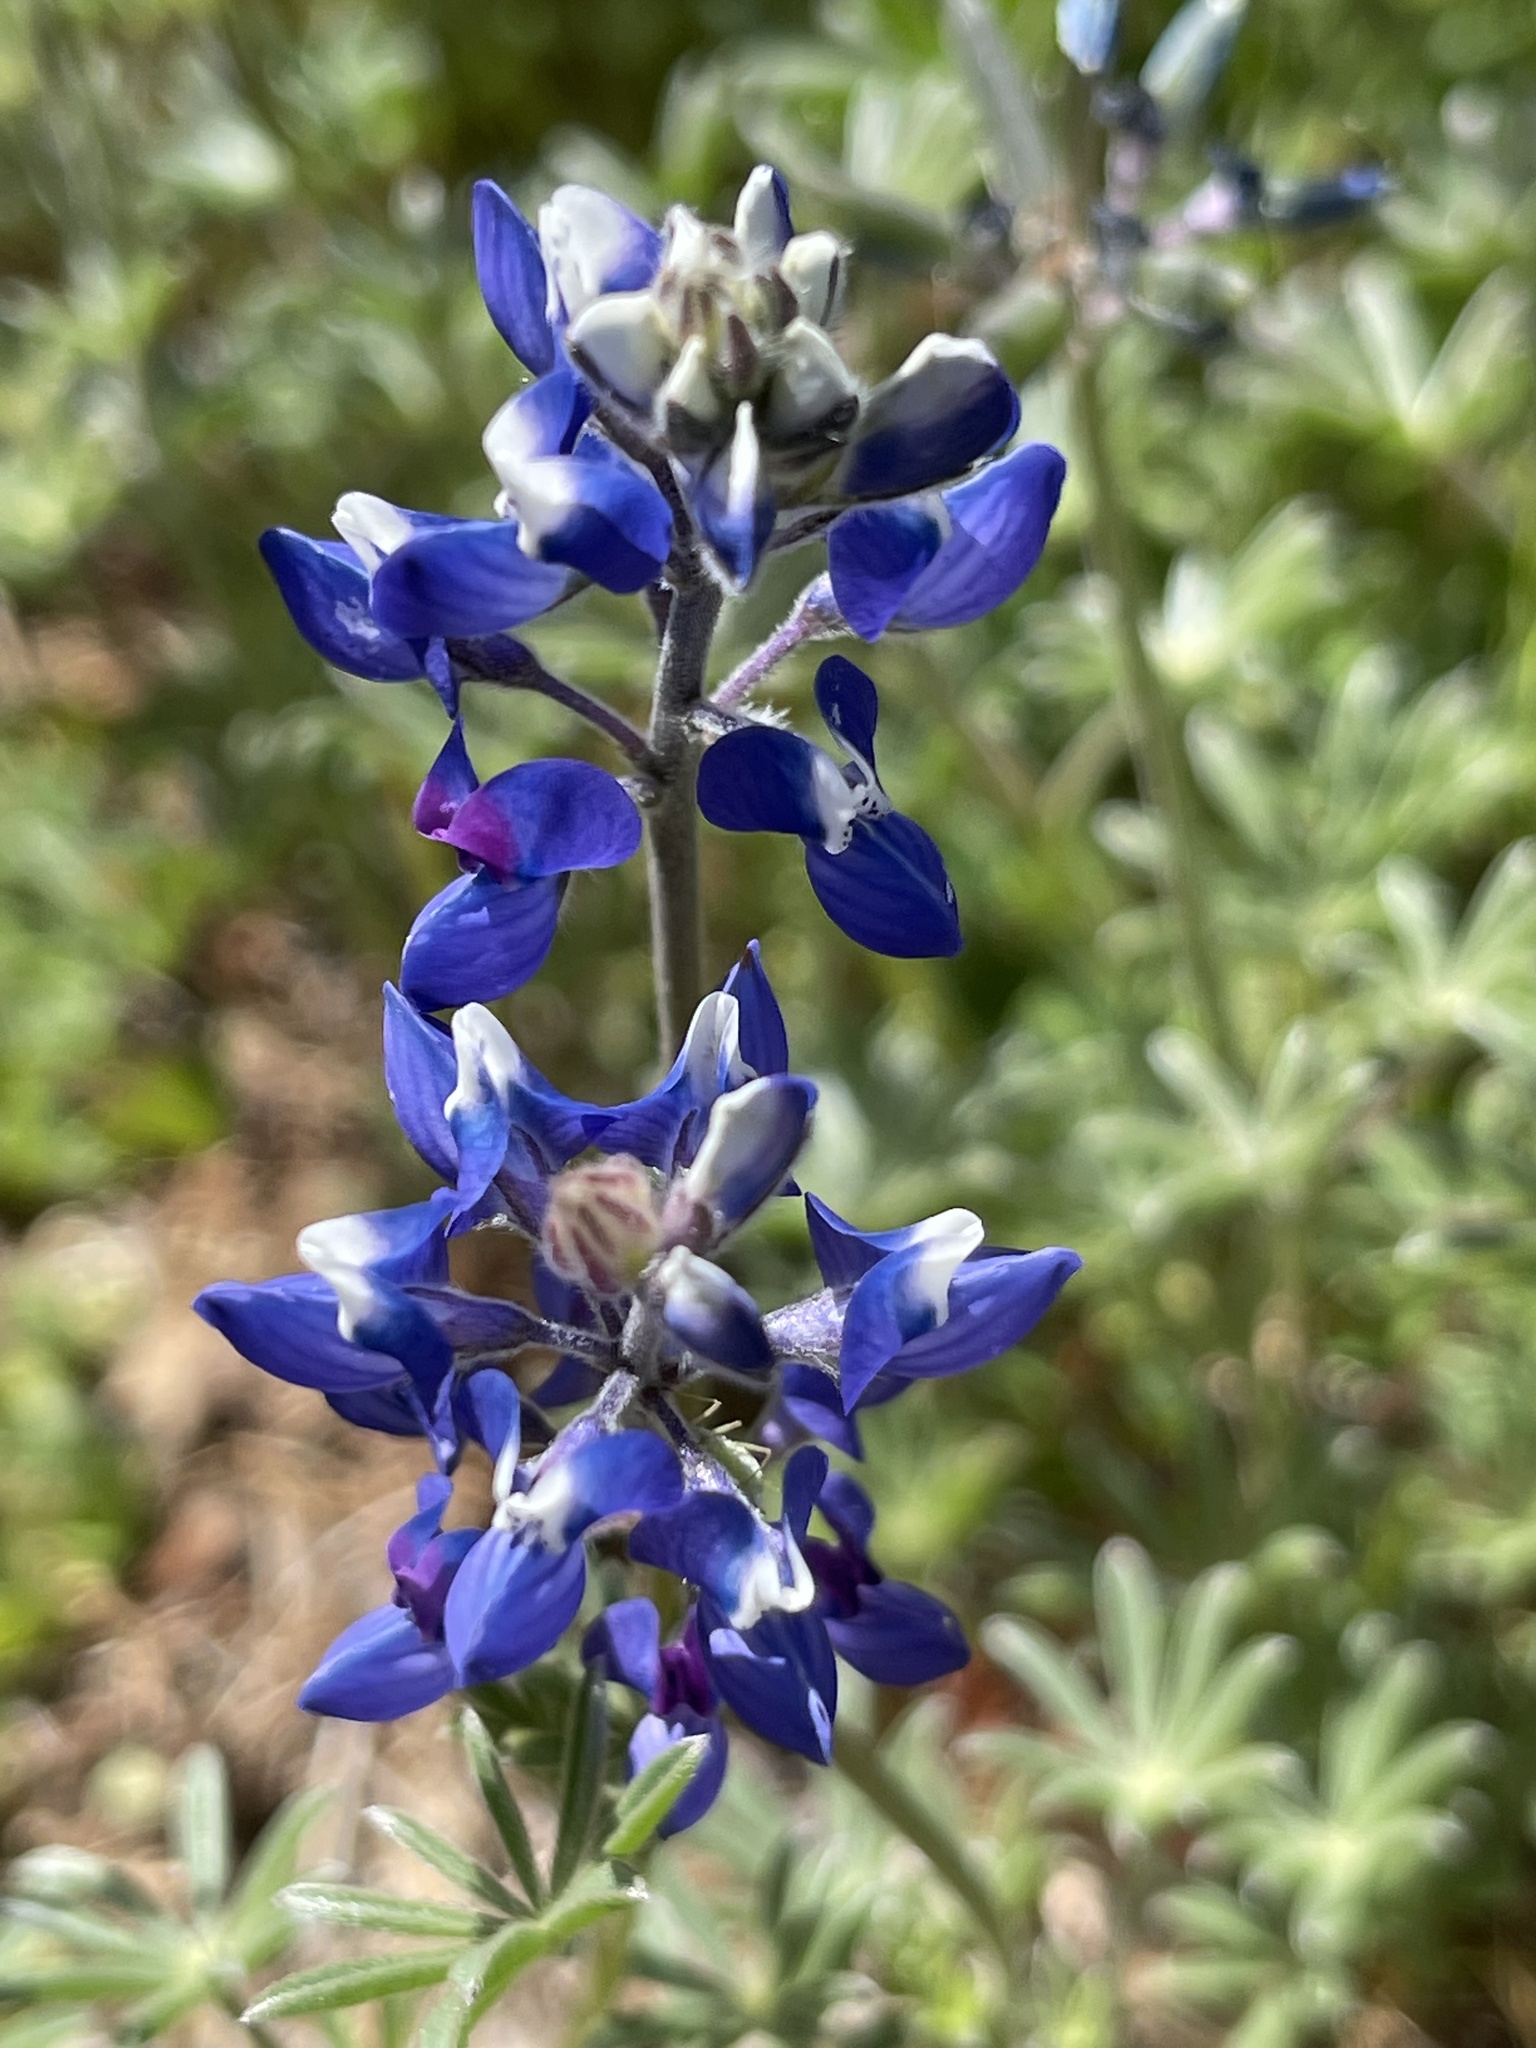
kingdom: Plantae
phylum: Tracheophyta
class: Magnoliopsida
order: Fabales
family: Fabaceae
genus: Lupinus
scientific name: Lupinus bicolor
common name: Miniature lupine
